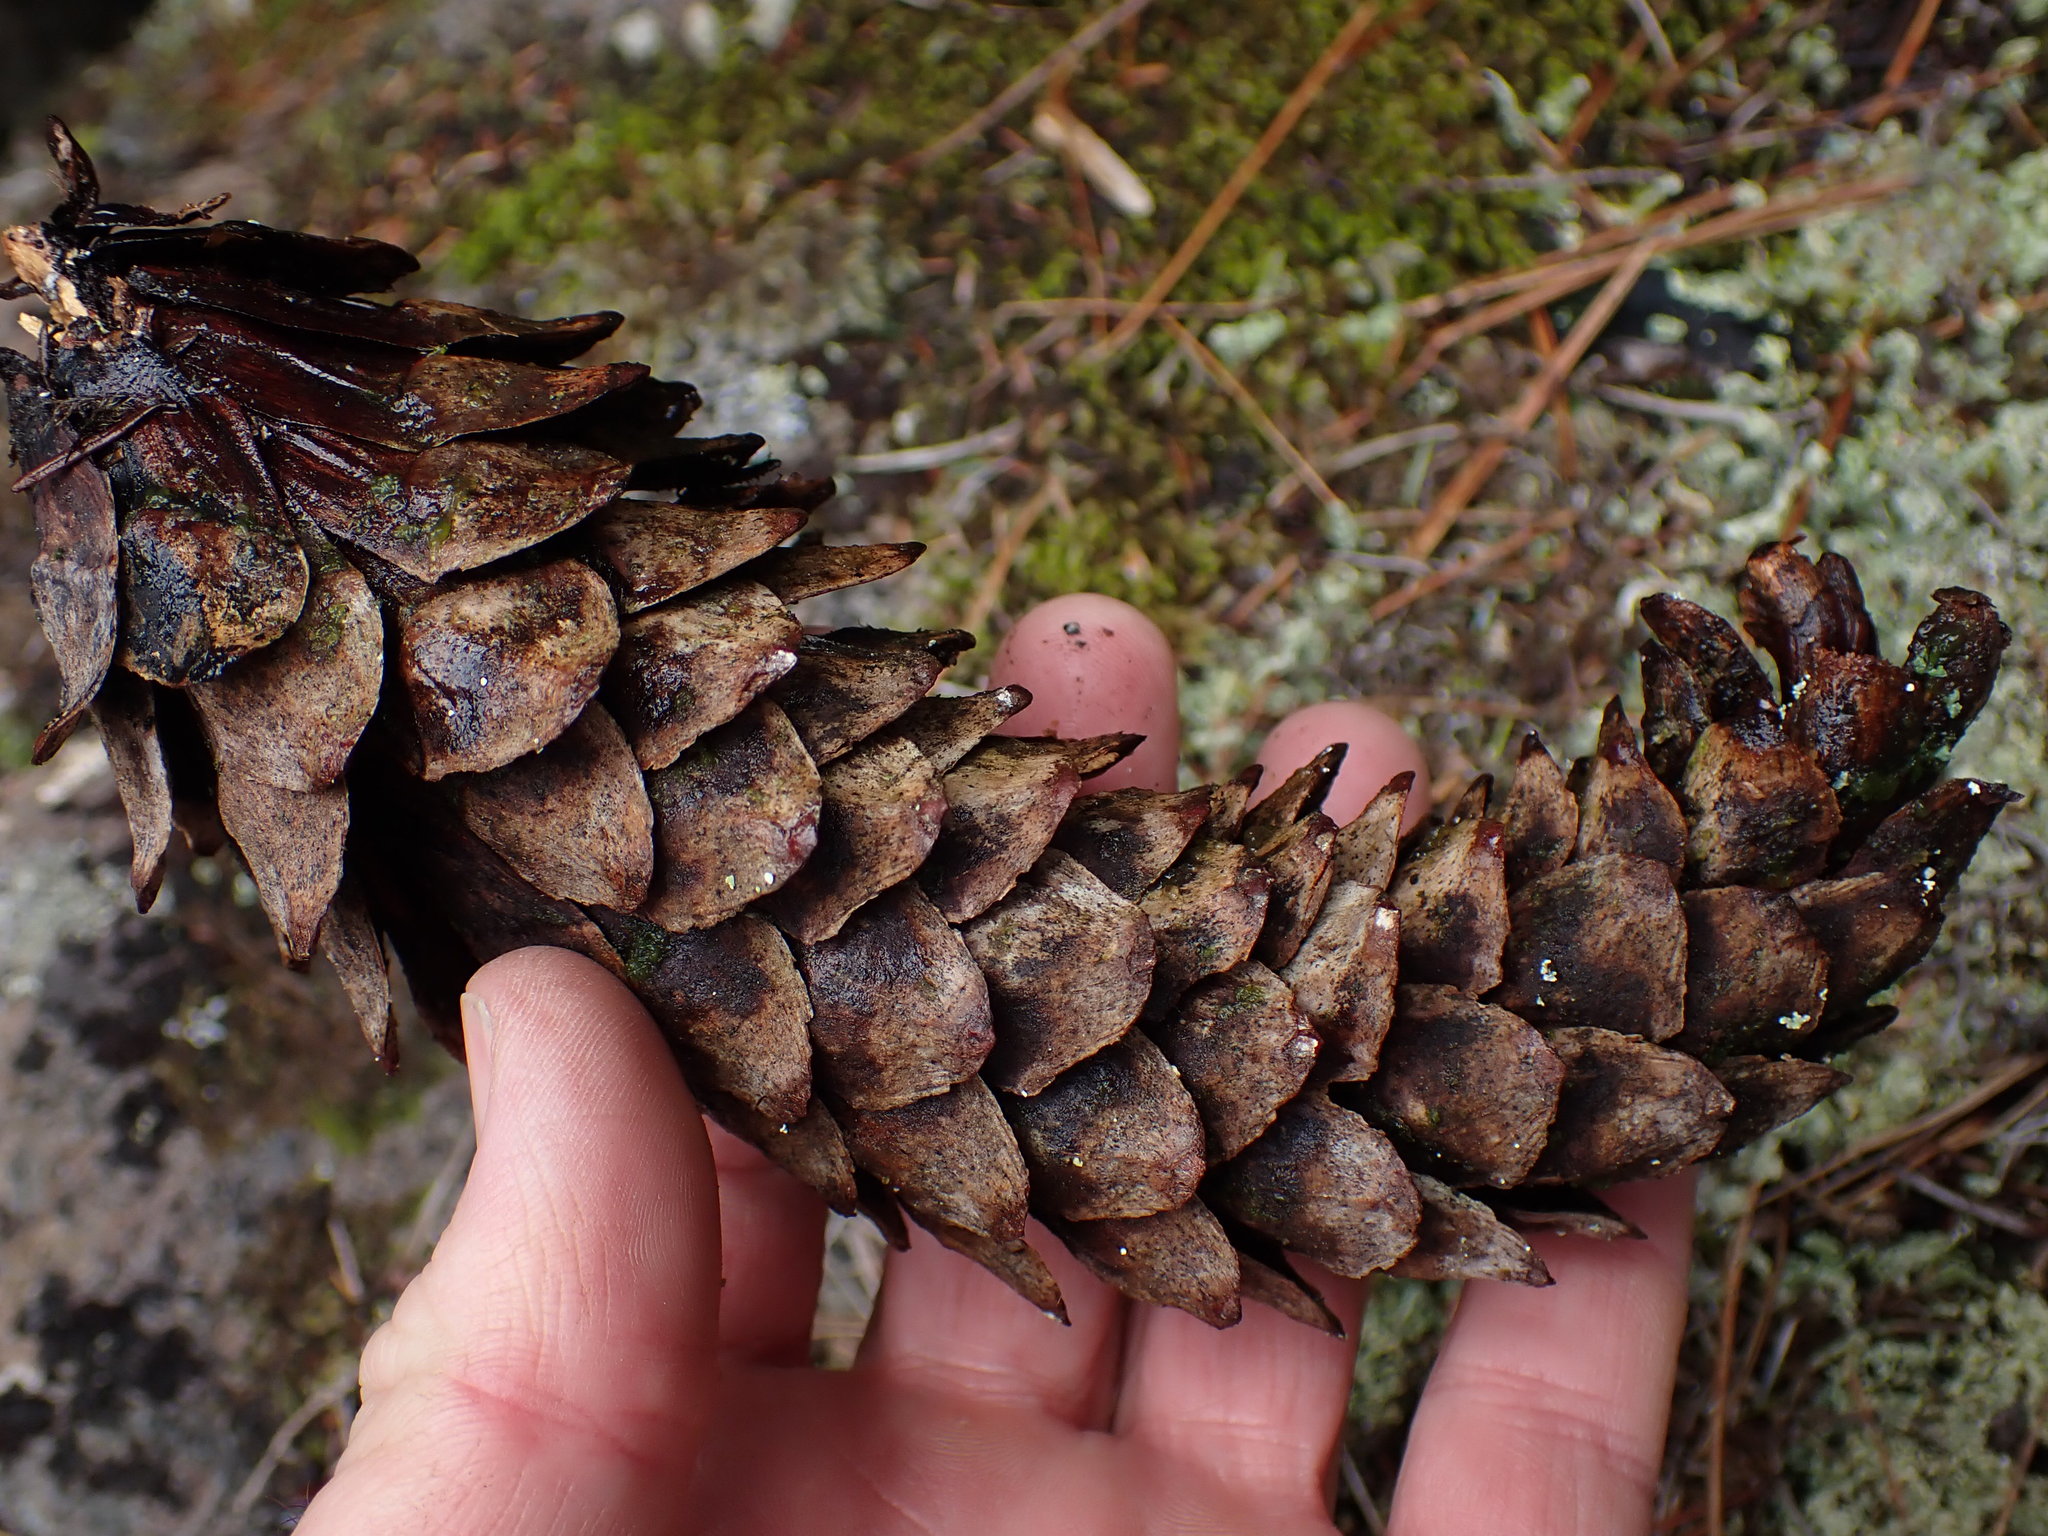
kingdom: Plantae
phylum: Tracheophyta
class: Pinopsida
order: Pinales
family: Pinaceae
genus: Pinus
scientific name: Pinus monticola
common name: Western white pine
